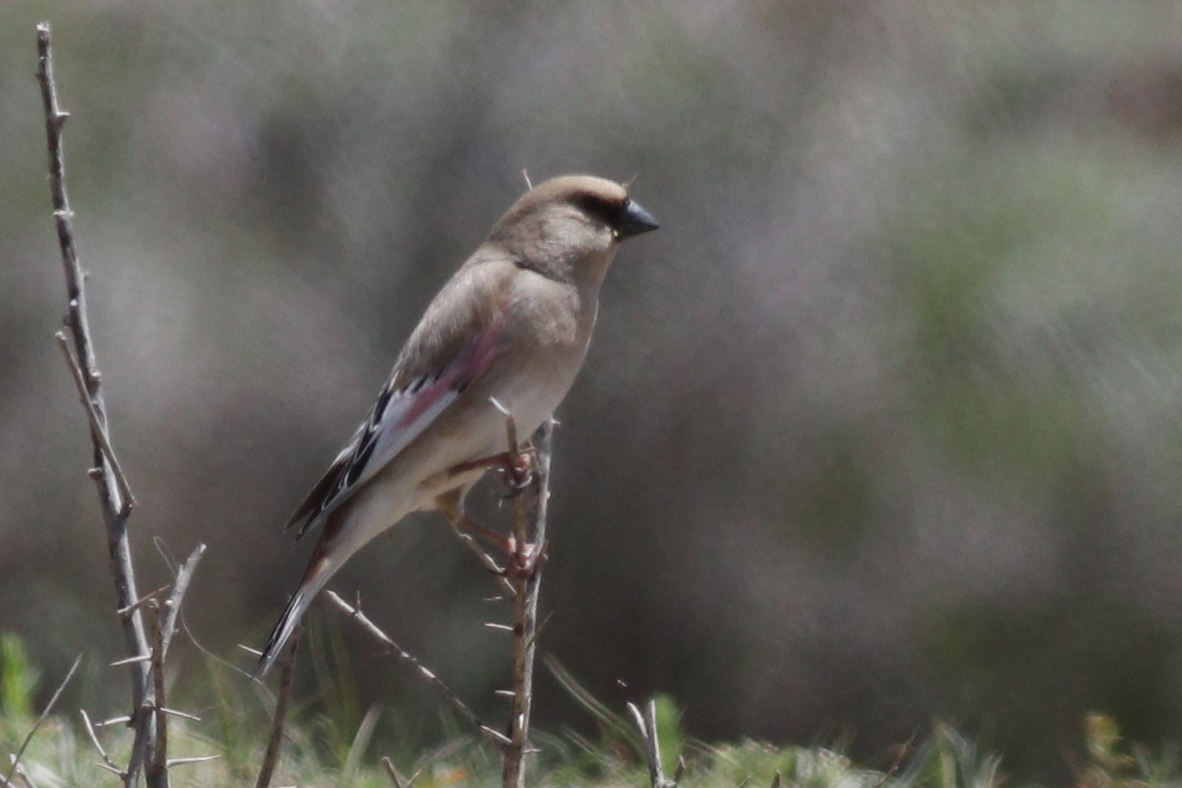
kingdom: Animalia
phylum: Chordata
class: Aves
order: Passeriformes
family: Fringillidae
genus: Rhodospiza
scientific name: Rhodospiza obsoleta
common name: Desert finch
